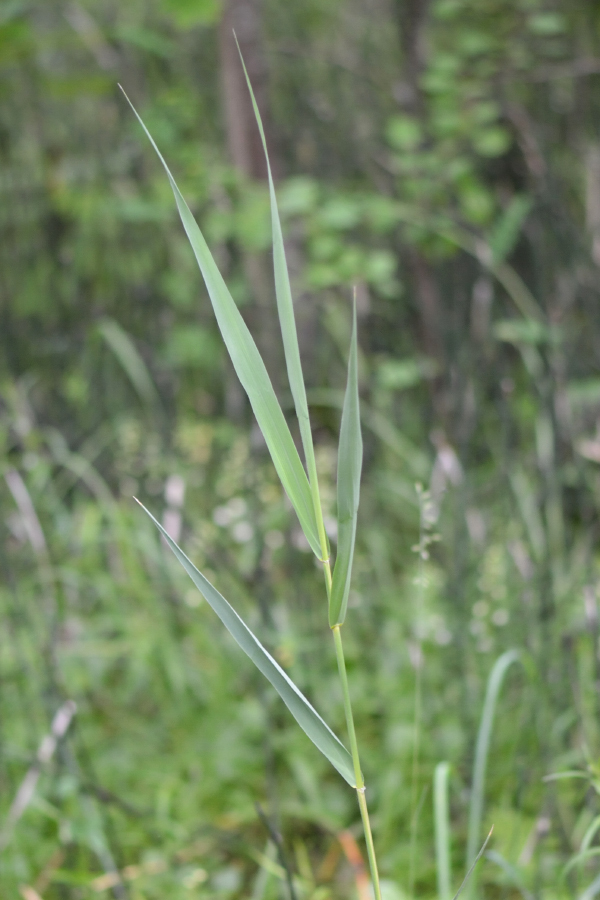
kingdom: Plantae
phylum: Tracheophyta
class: Liliopsida
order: Poales
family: Poaceae
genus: Phragmites
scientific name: Phragmites australis
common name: Common reed
